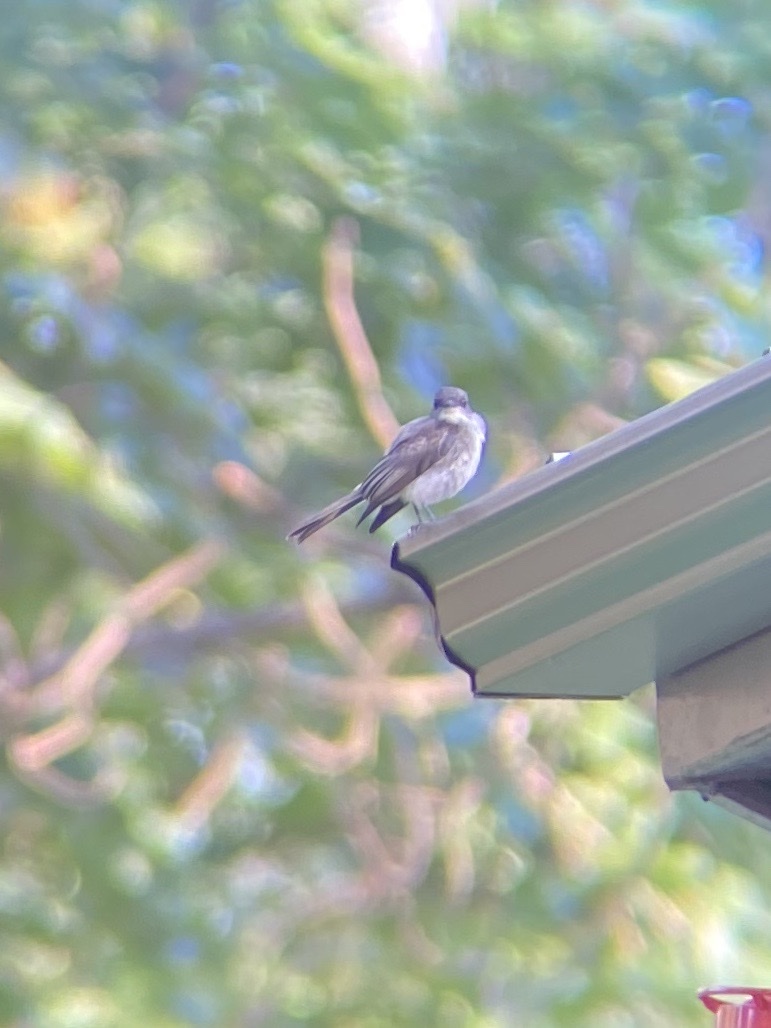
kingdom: Animalia
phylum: Chordata
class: Aves
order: Passeriformes
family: Tyrannidae
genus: Sayornis
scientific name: Sayornis phoebe
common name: Eastern phoebe
